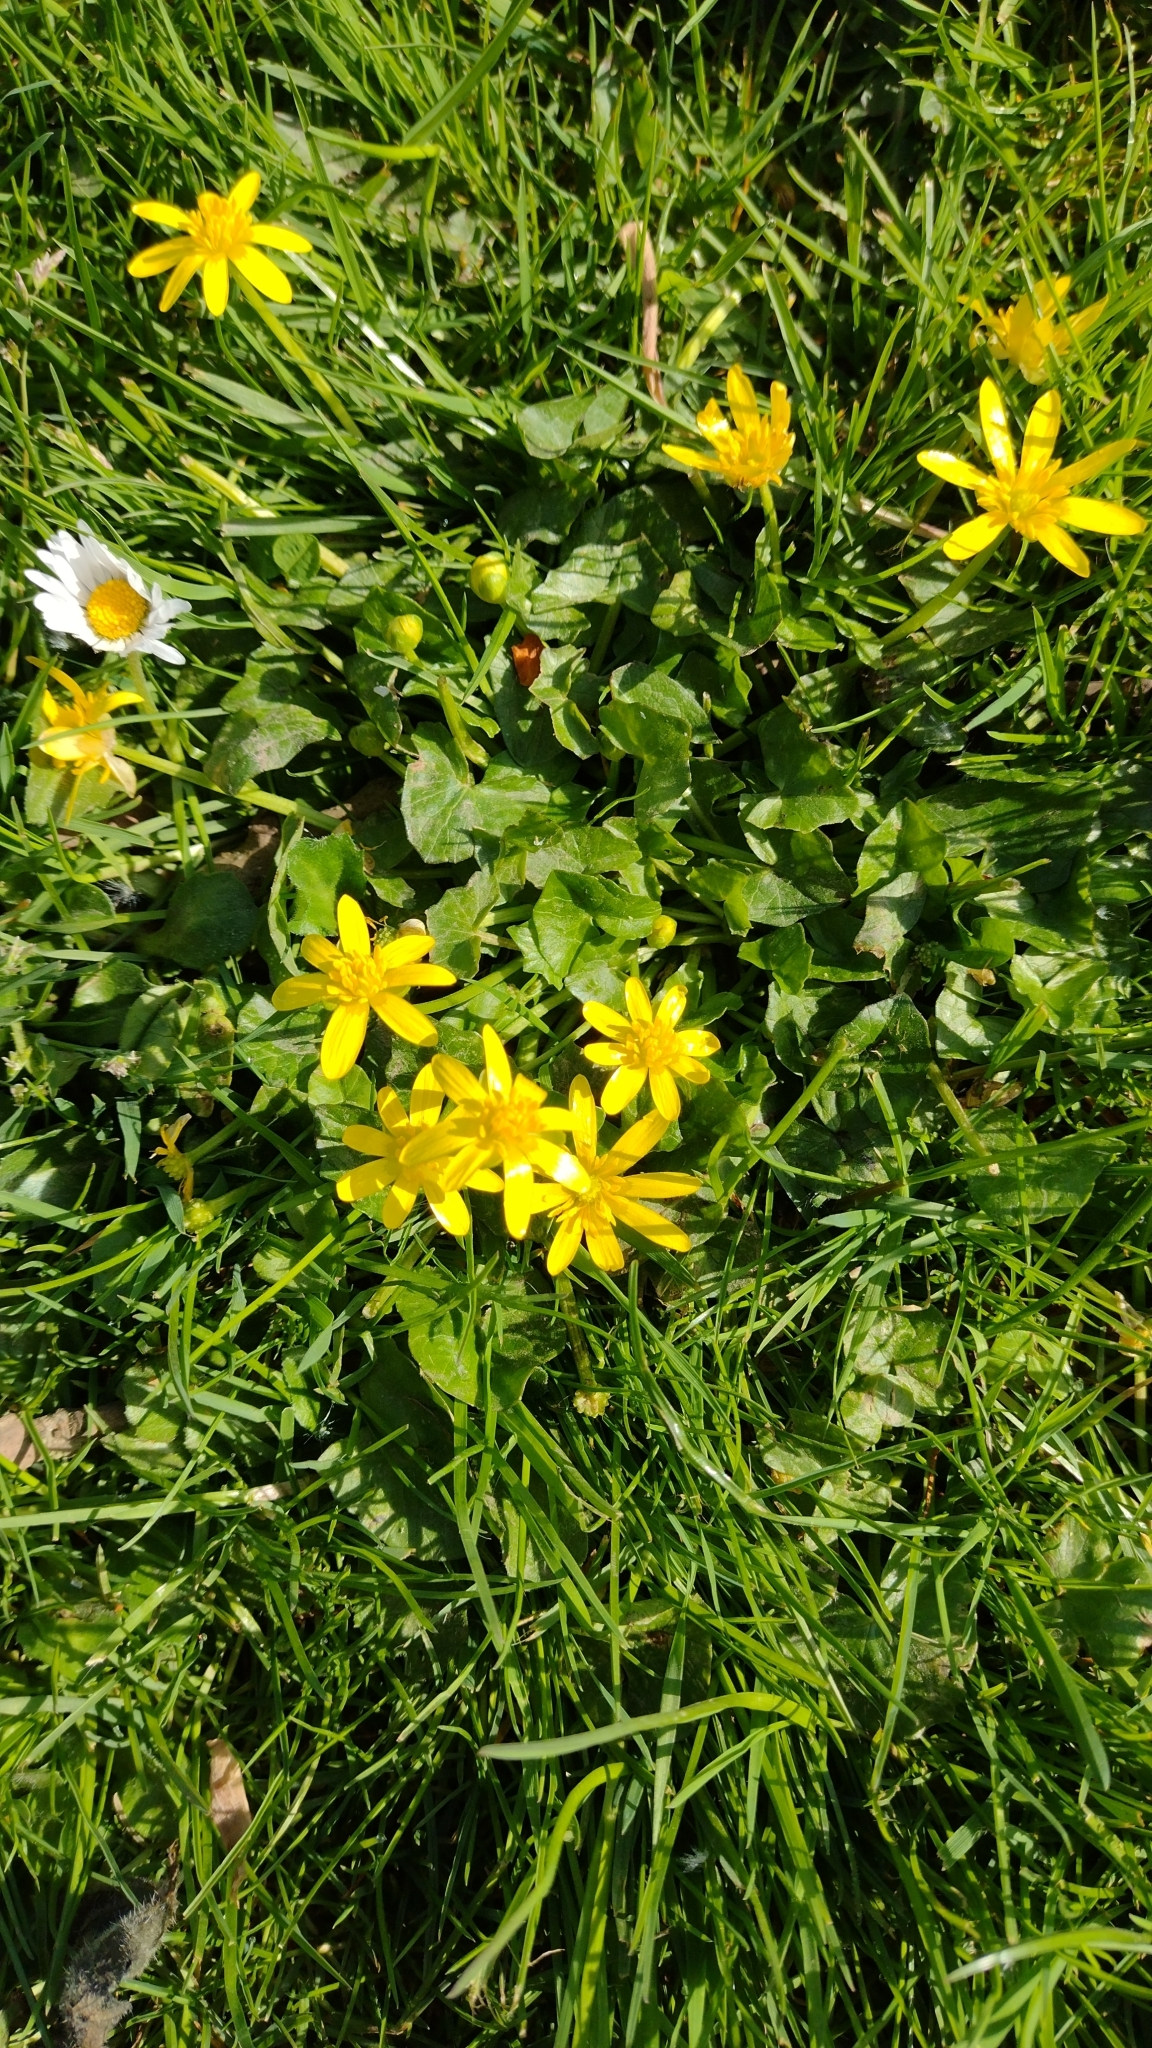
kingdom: Plantae
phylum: Tracheophyta
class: Magnoliopsida
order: Ranunculales
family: Ranunculaceae
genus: Ficaria
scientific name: Ficaria verna
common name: Lesser celandine
